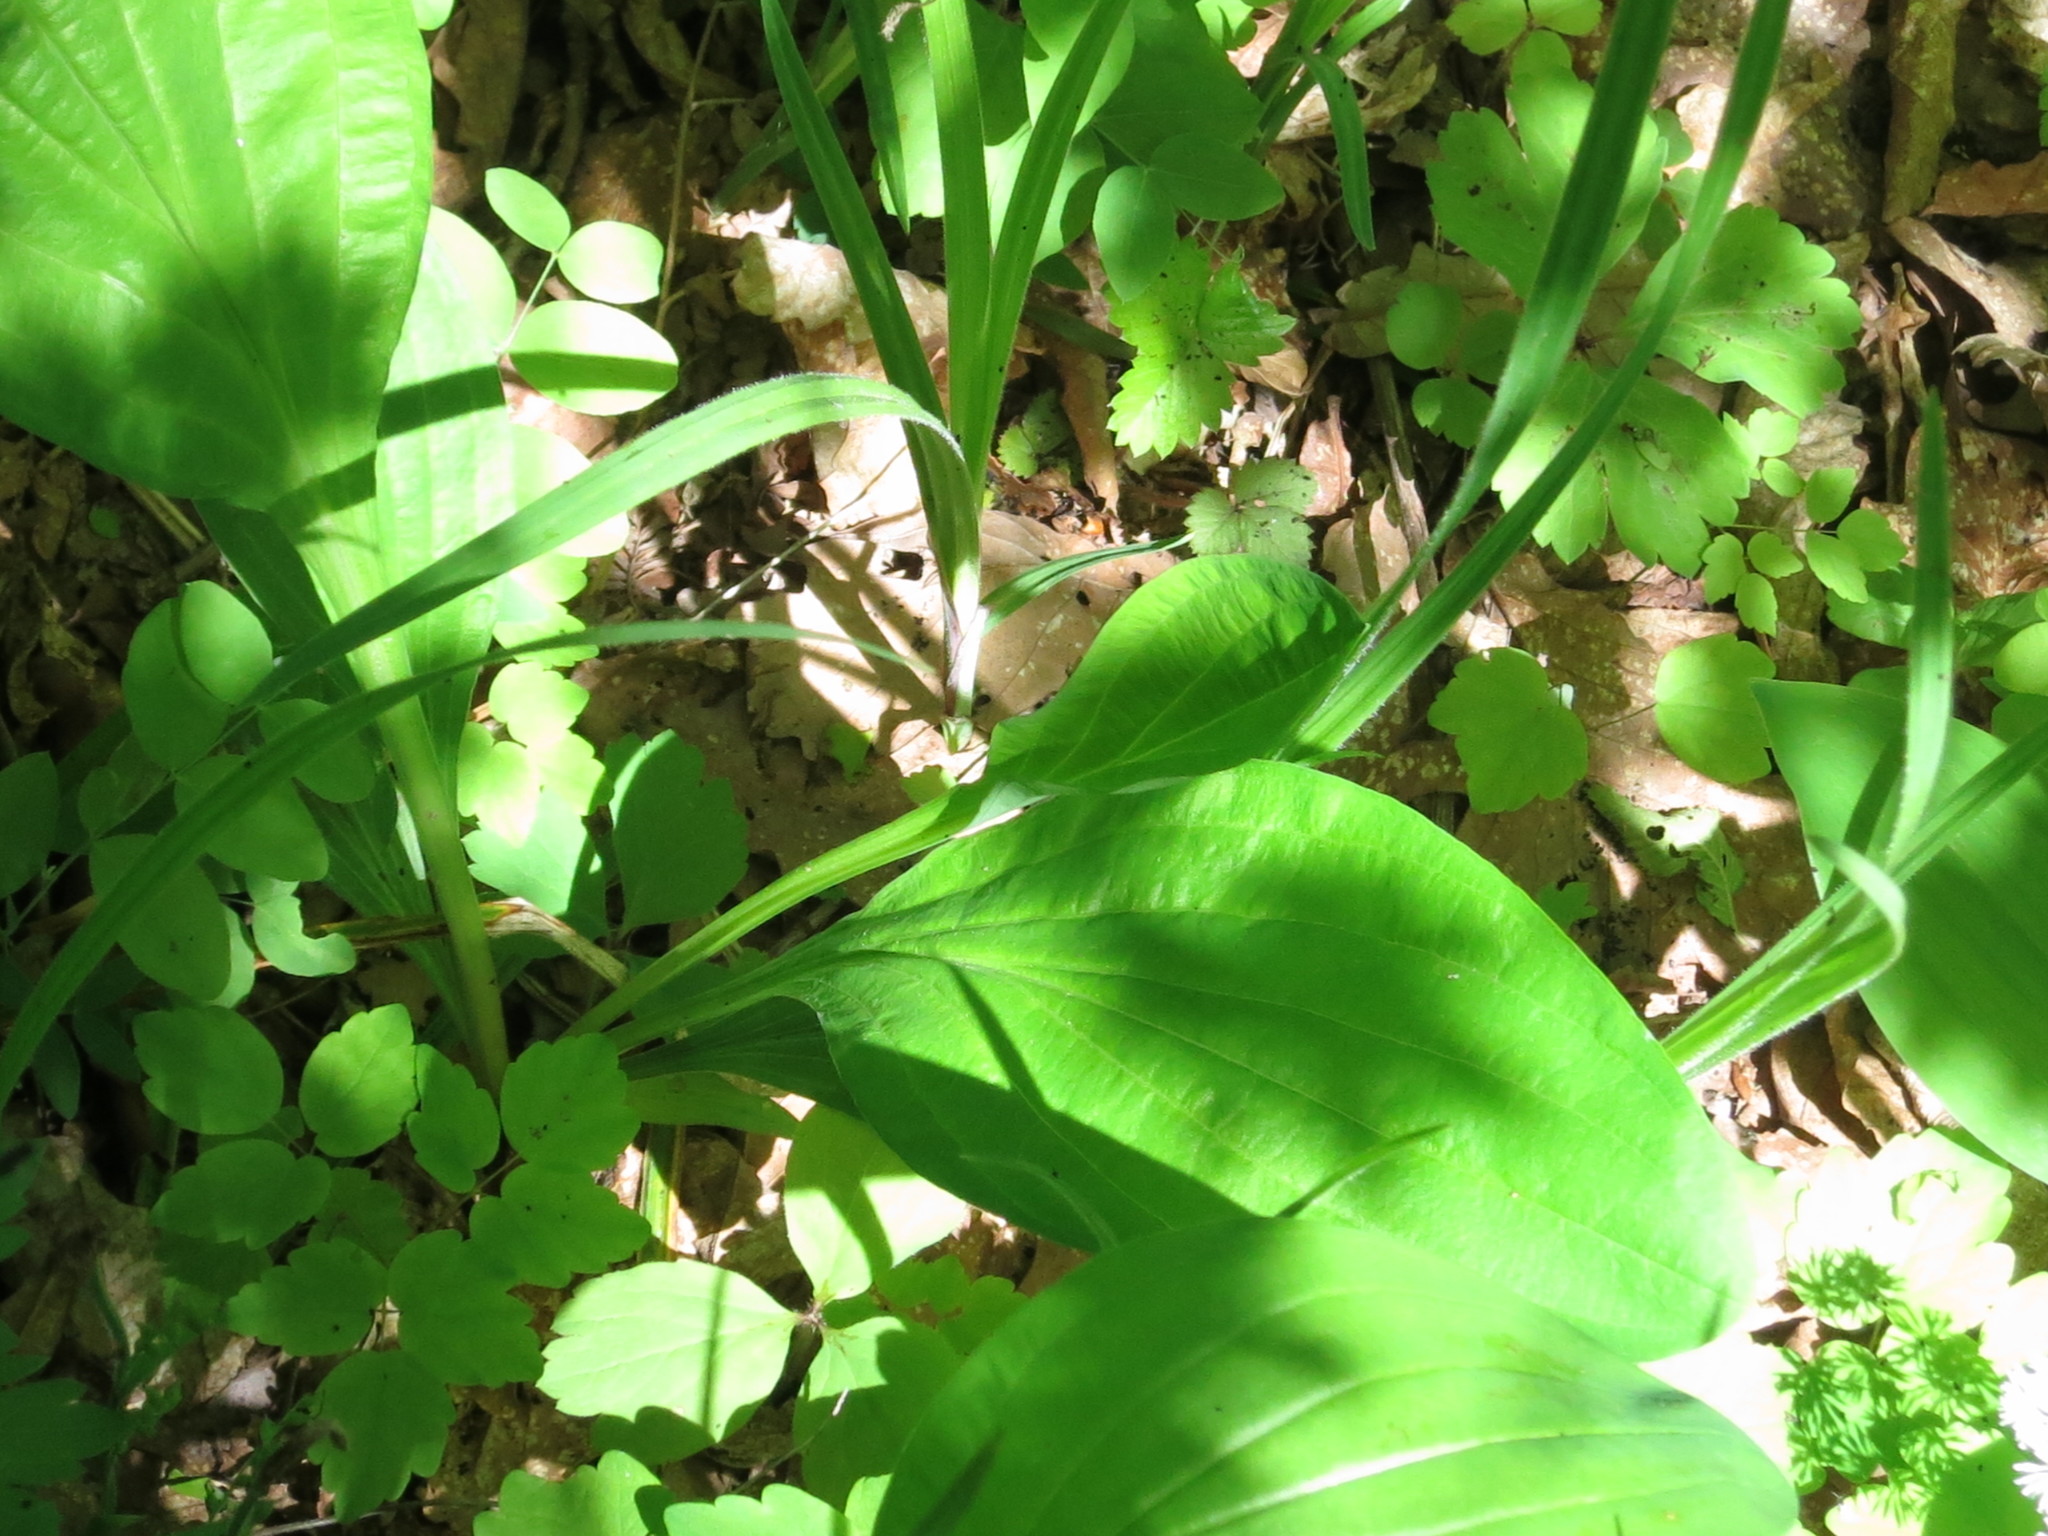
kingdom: Plantae
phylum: Tracheophyta
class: Magnoliopsida
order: Apiales
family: Apiaceae
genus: Bupleurum
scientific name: Bupleurum longiradiatum
